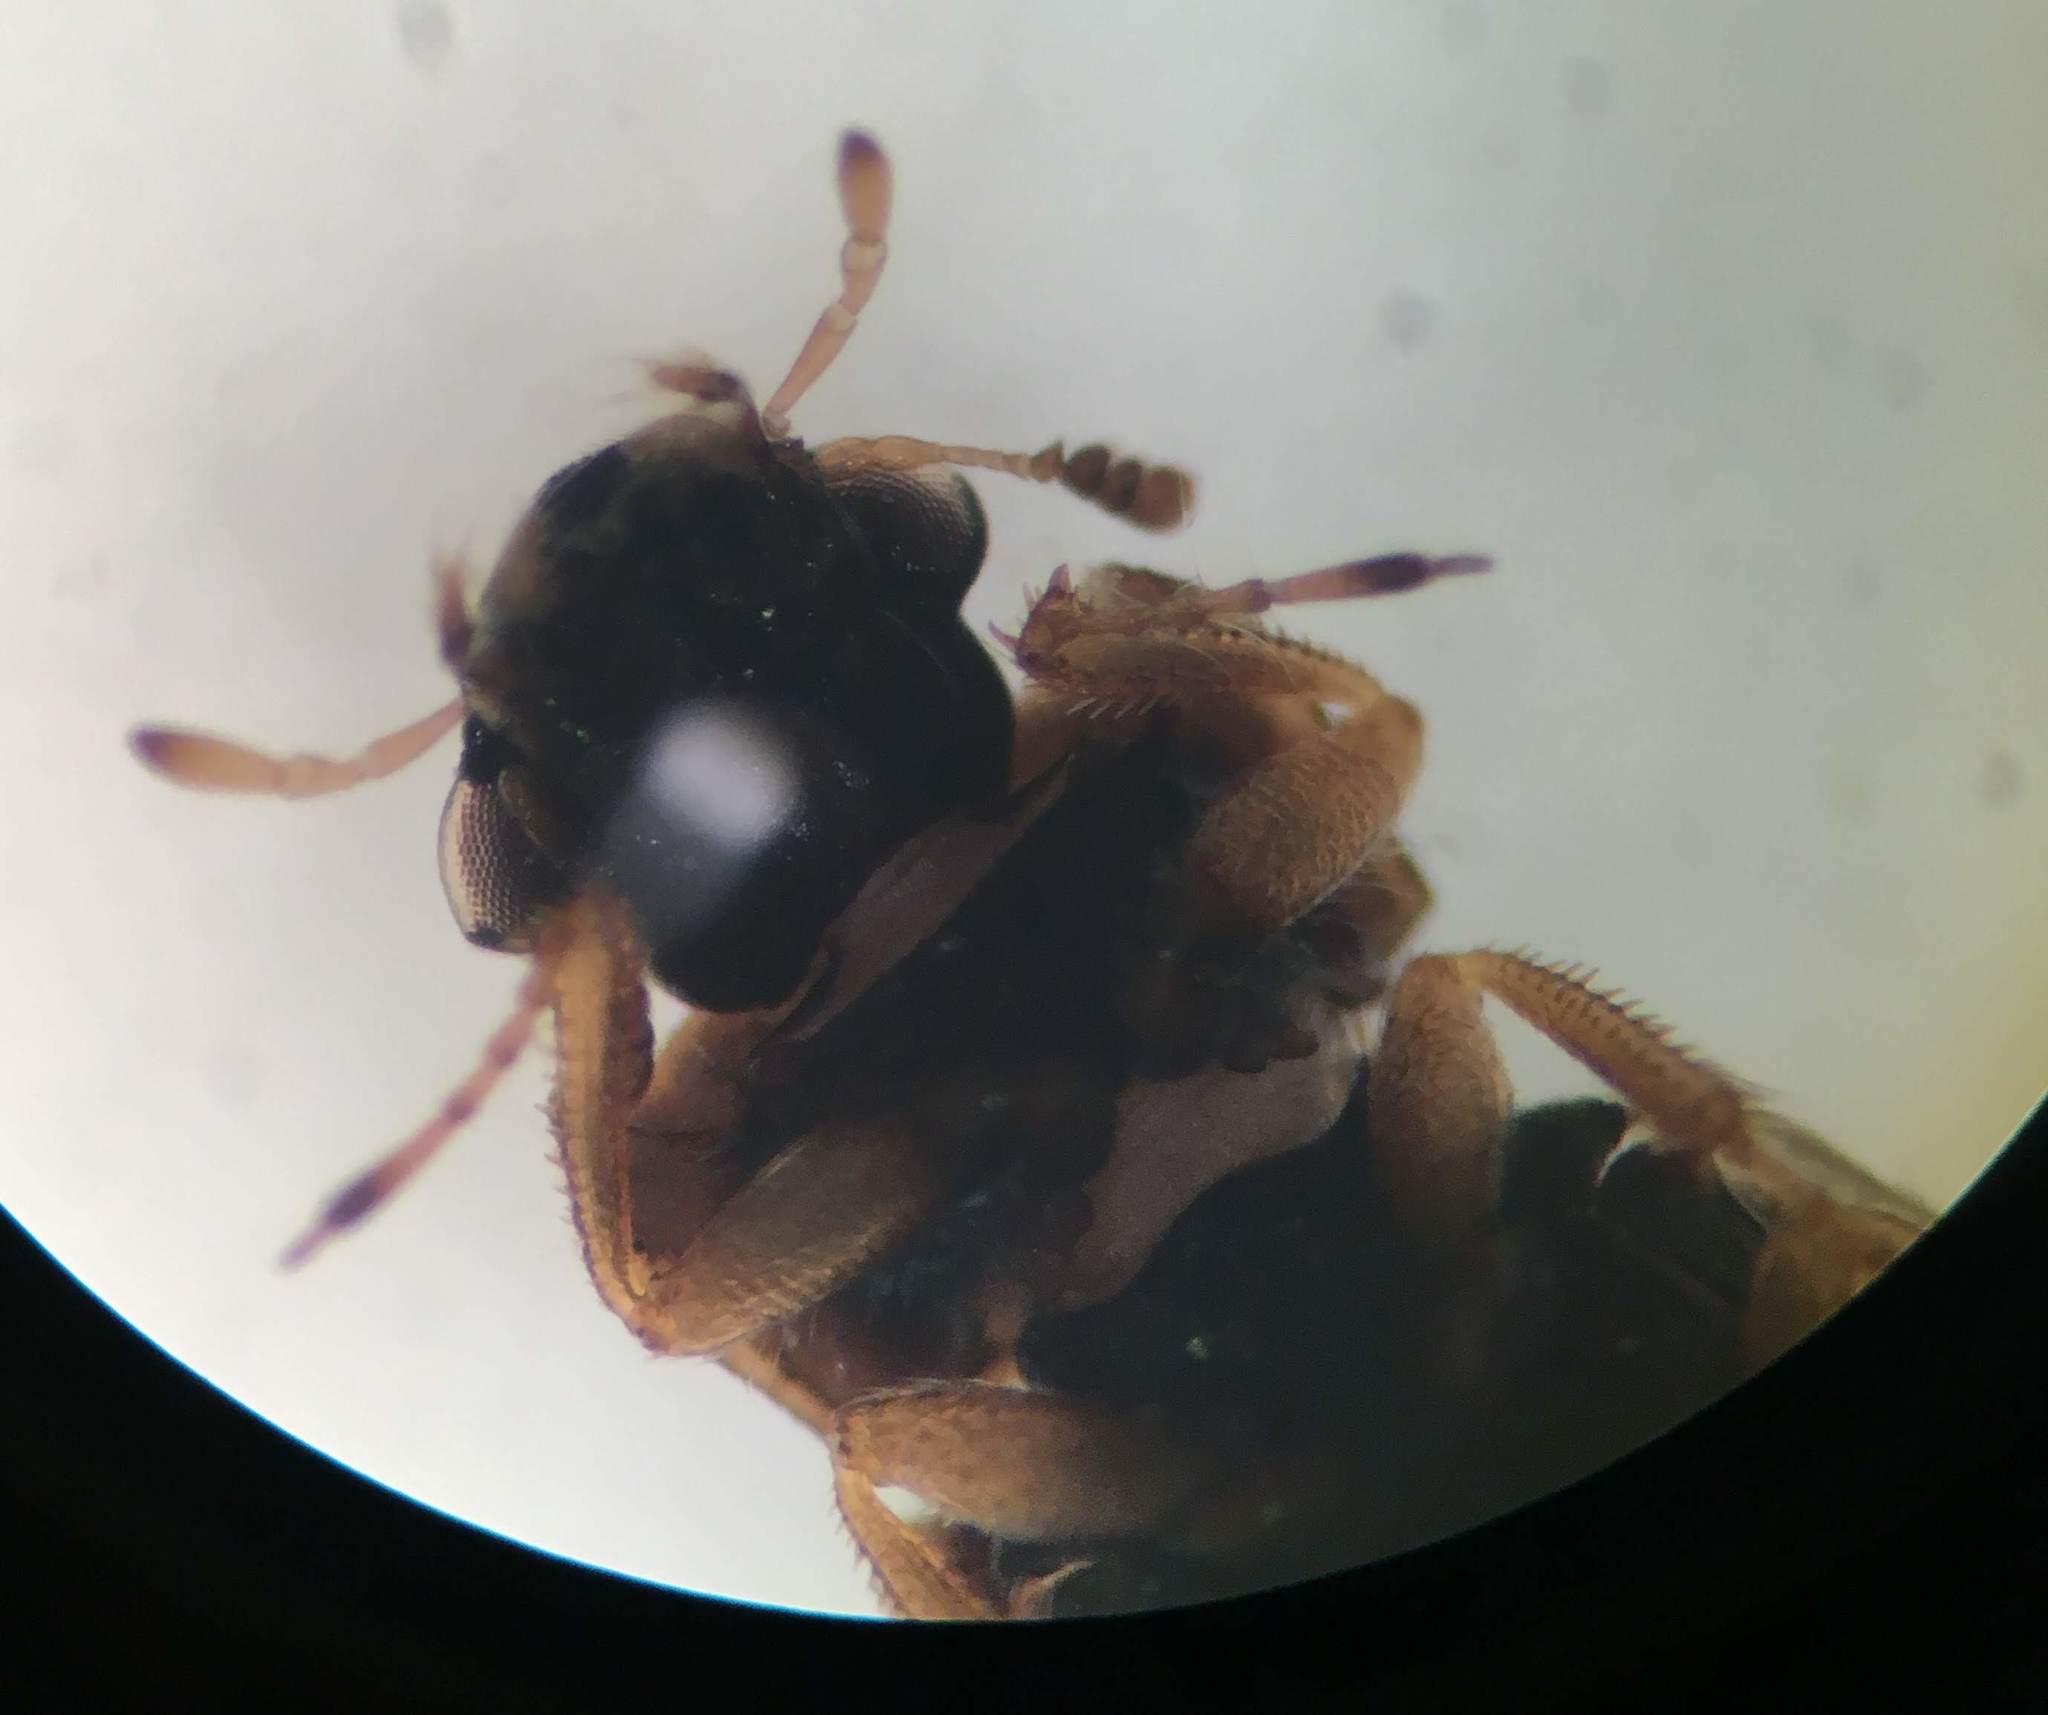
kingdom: Animalia
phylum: Arthropoda
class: Insecta
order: Coleoptera
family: Helophoridae
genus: Helophorus
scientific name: Helophorus lineatus
